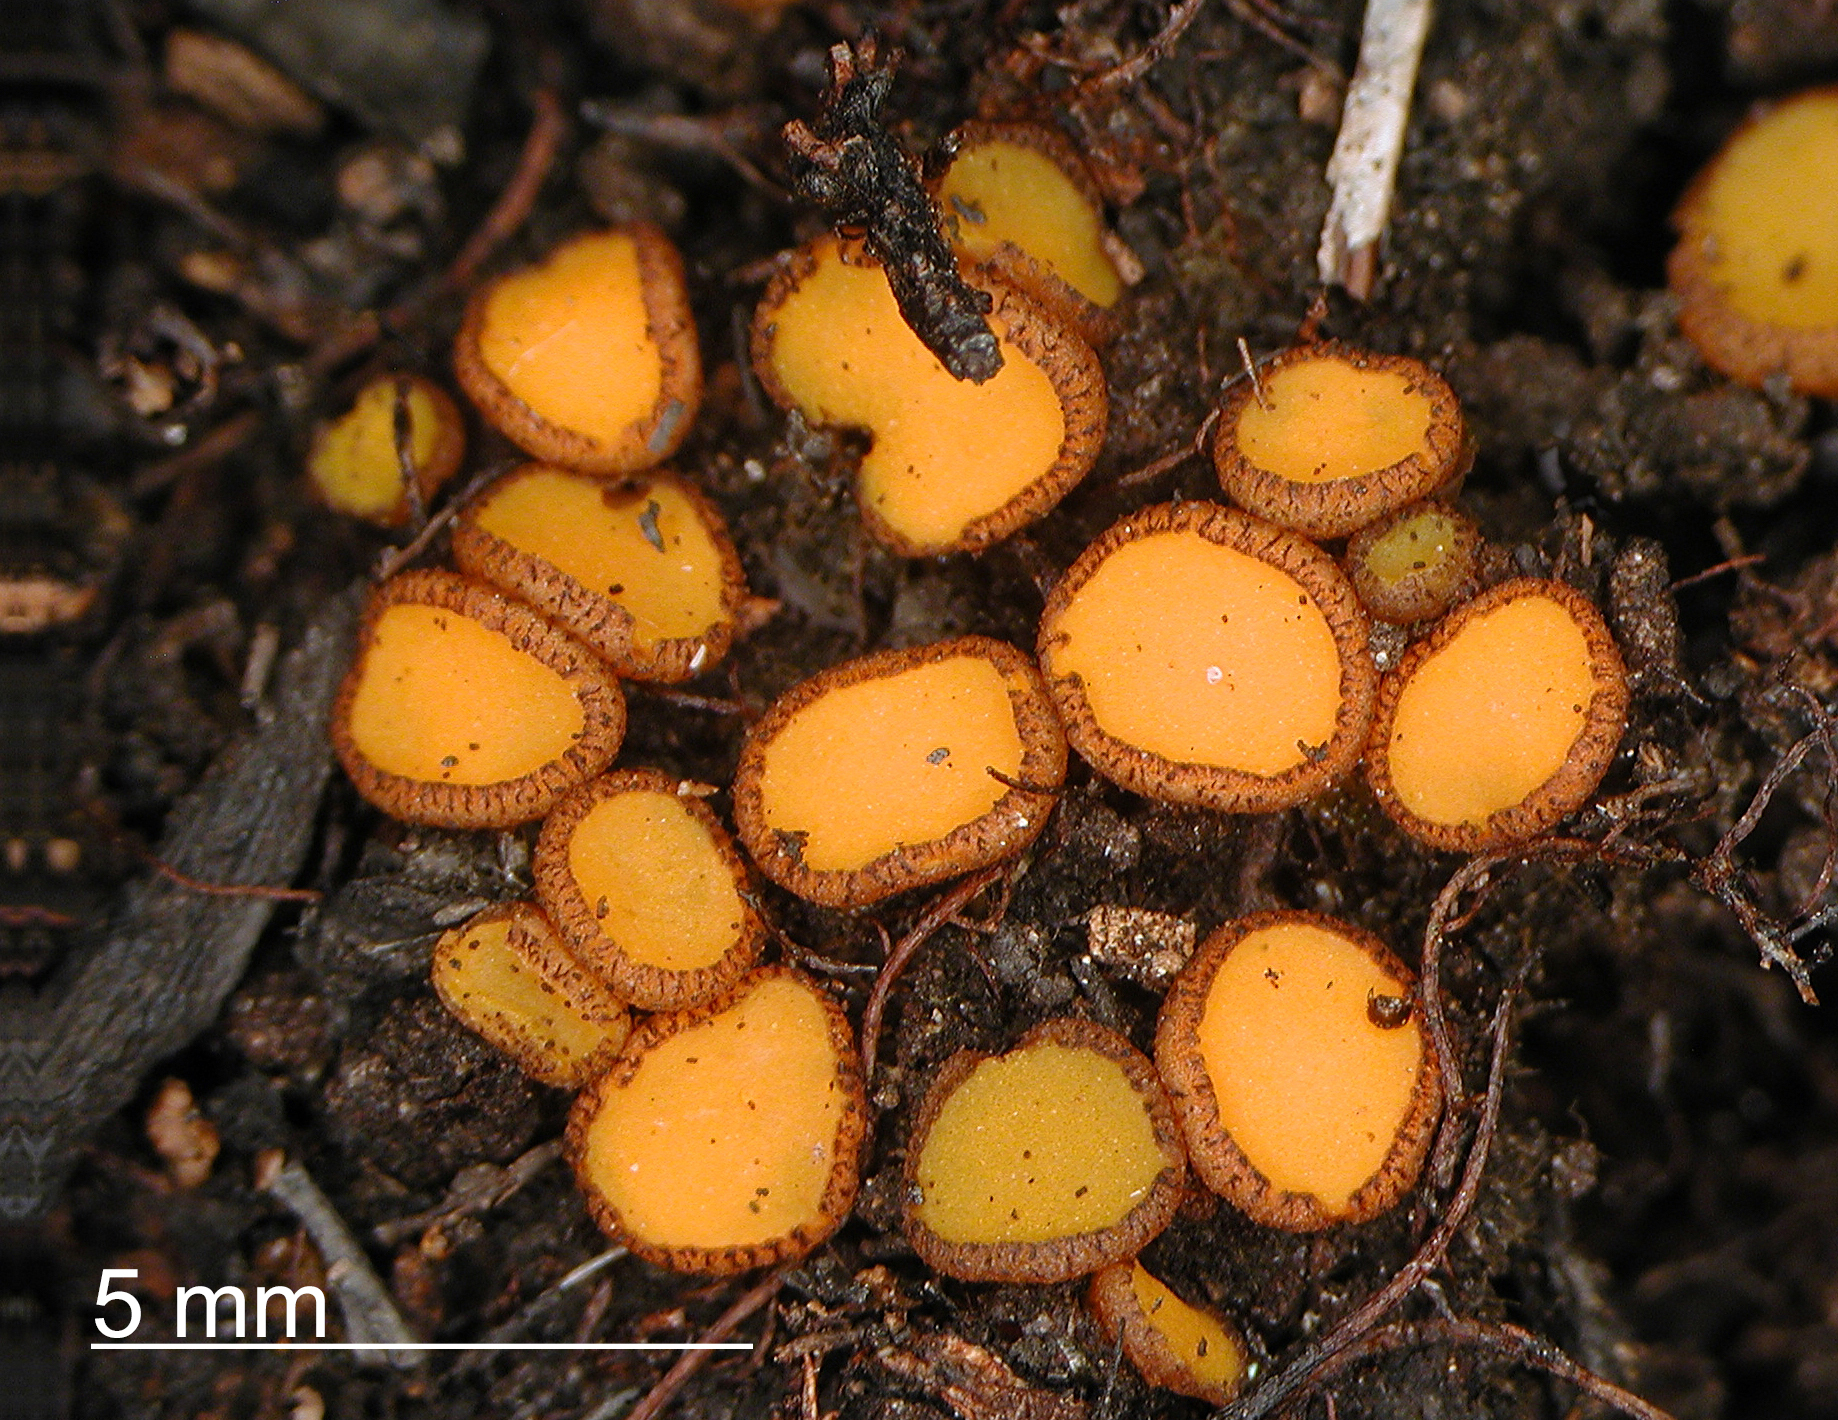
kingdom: Fungi
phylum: Ascomycota
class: Pezizomycetes
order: Pezizales
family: Pyronemataceae
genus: Anthracobia
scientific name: Anthracobia muelleri
